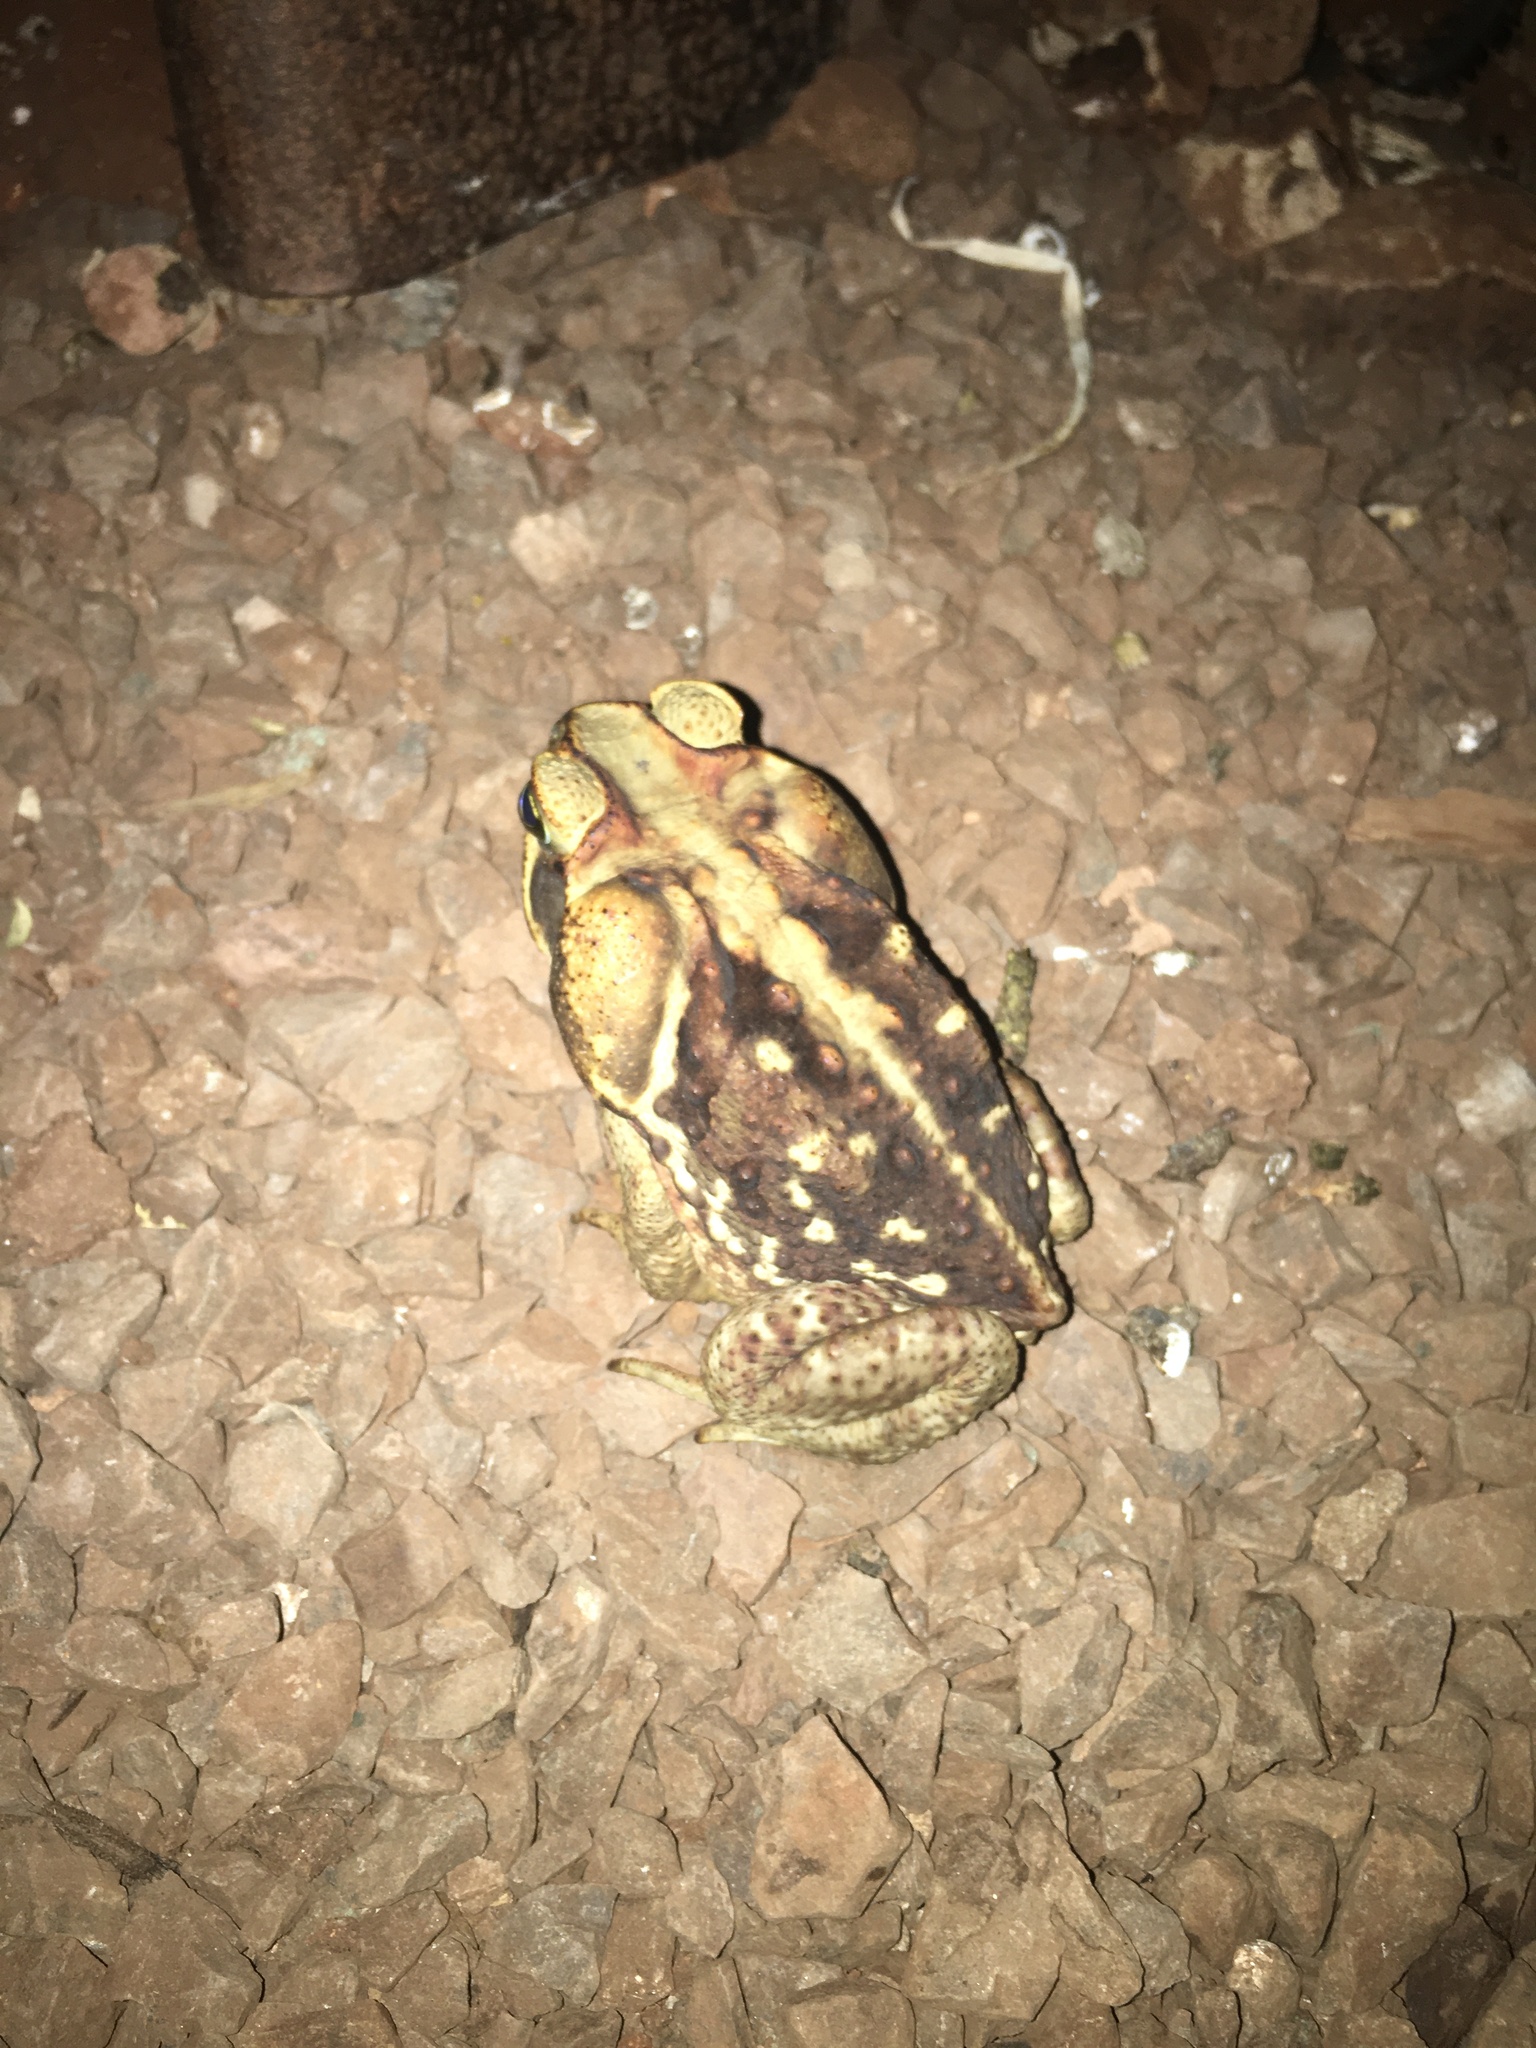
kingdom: Animalia
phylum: Chordata
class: Amphibia
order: Anura
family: Bufonidae
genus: Rhinella
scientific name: Rhinella diptycha
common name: Cope's toad
